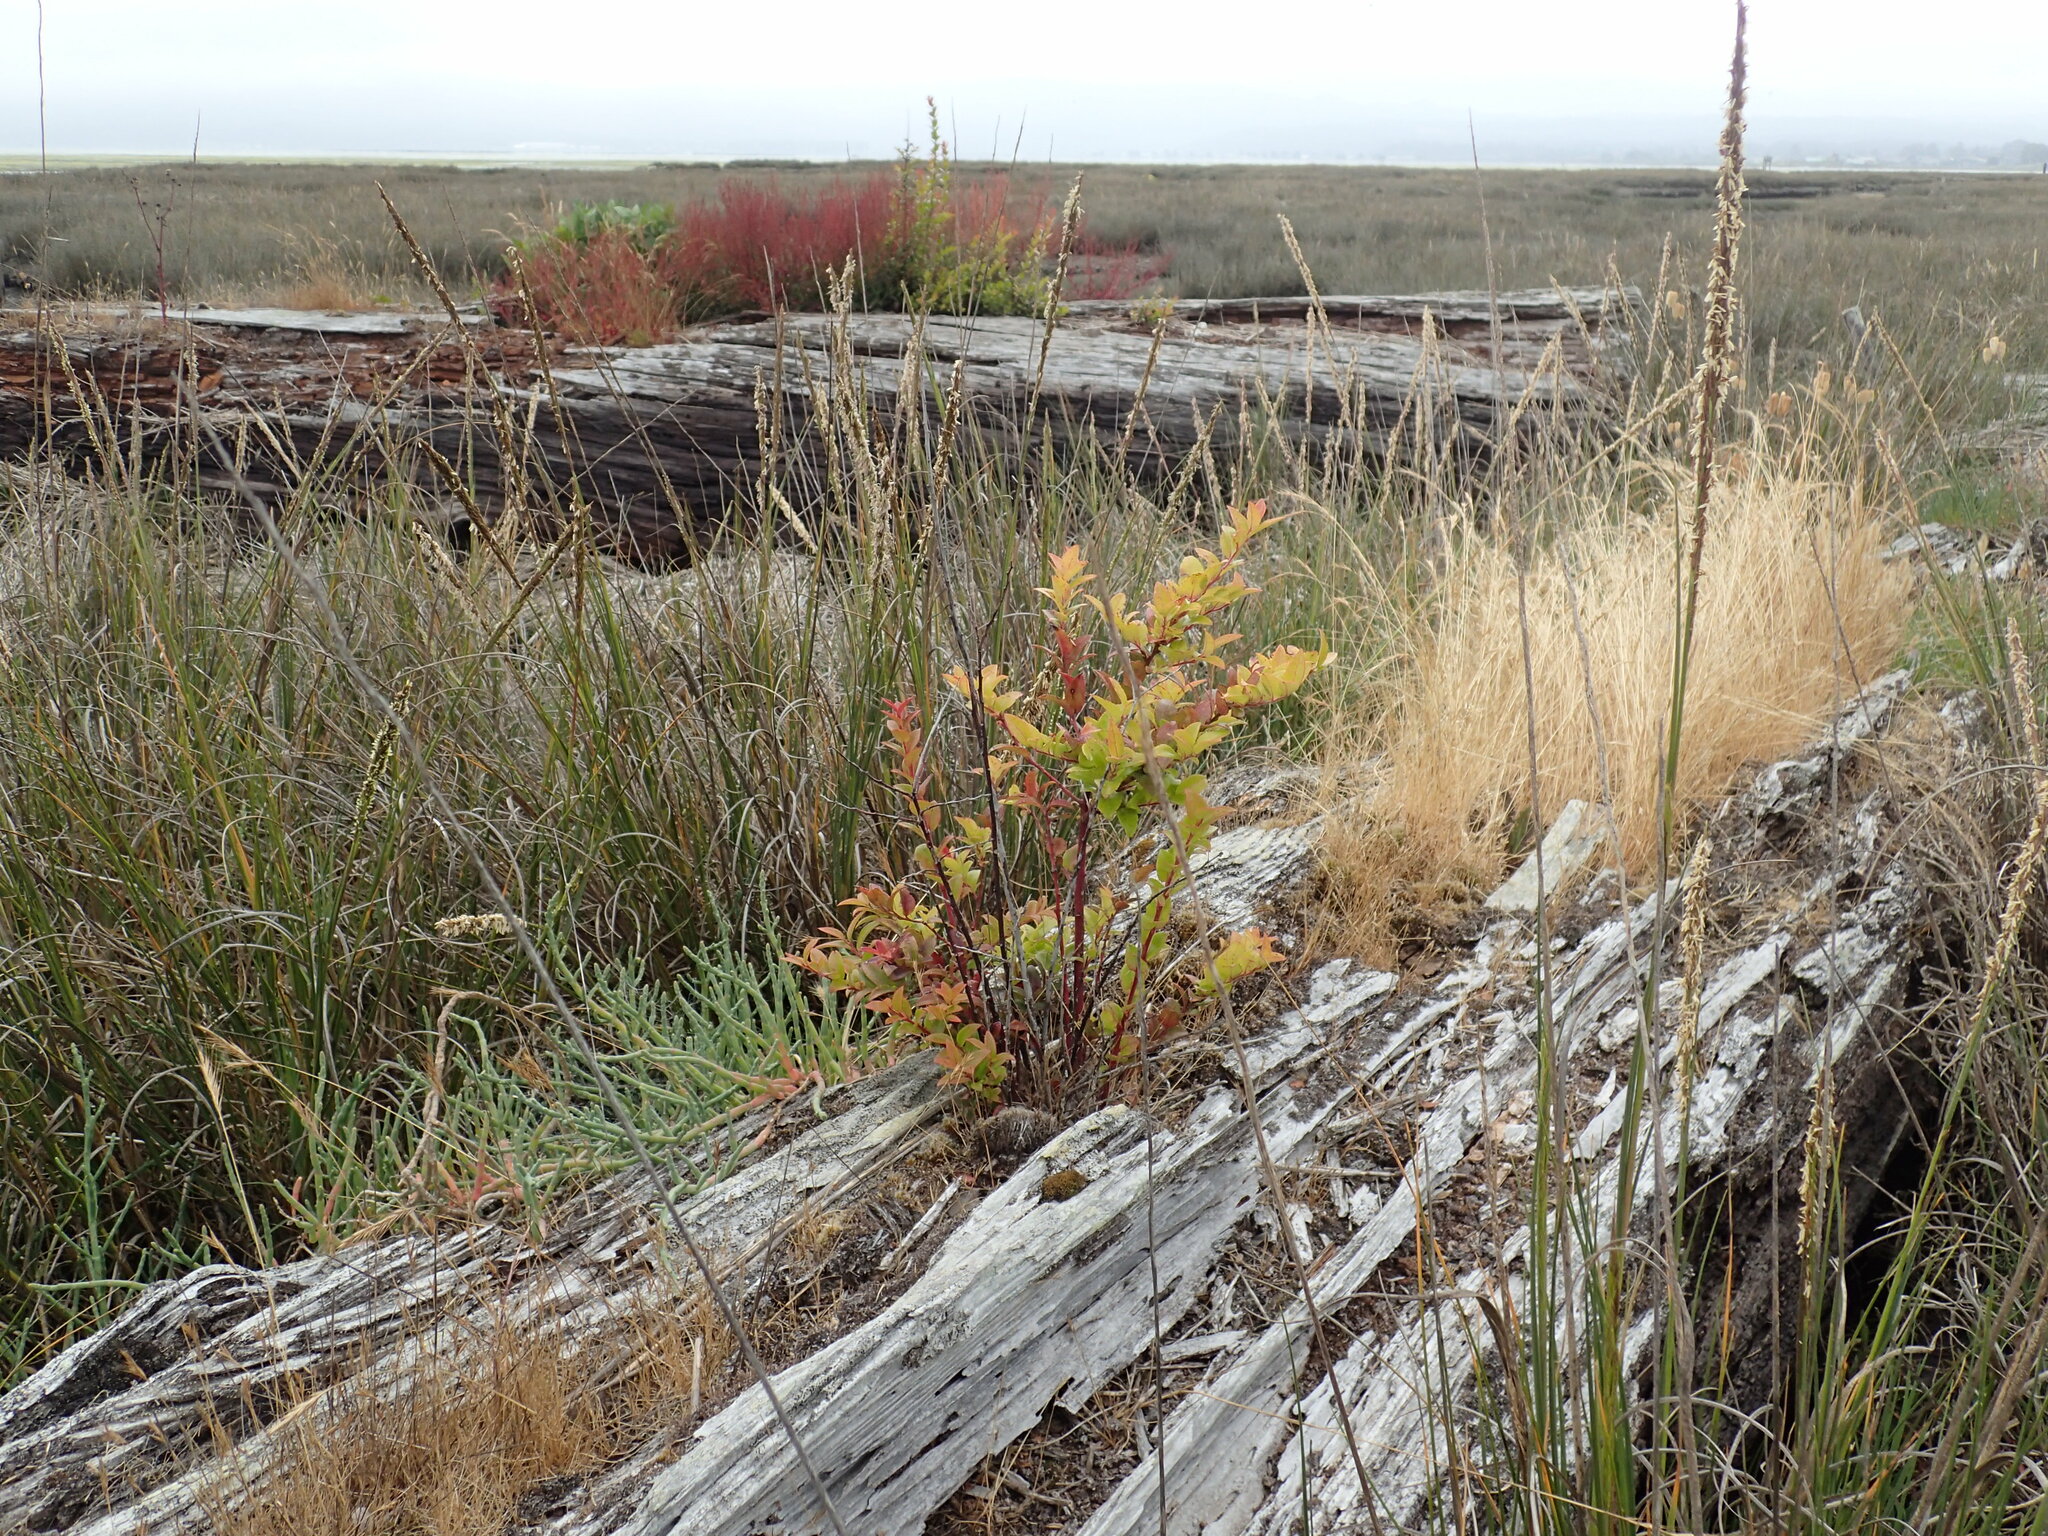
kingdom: Plantae
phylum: Tracheophyta
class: Magnoliopsida
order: Ericales
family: Ericaceae
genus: Vaccinium
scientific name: Vaccinium ovatum
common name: California-huckleberry
